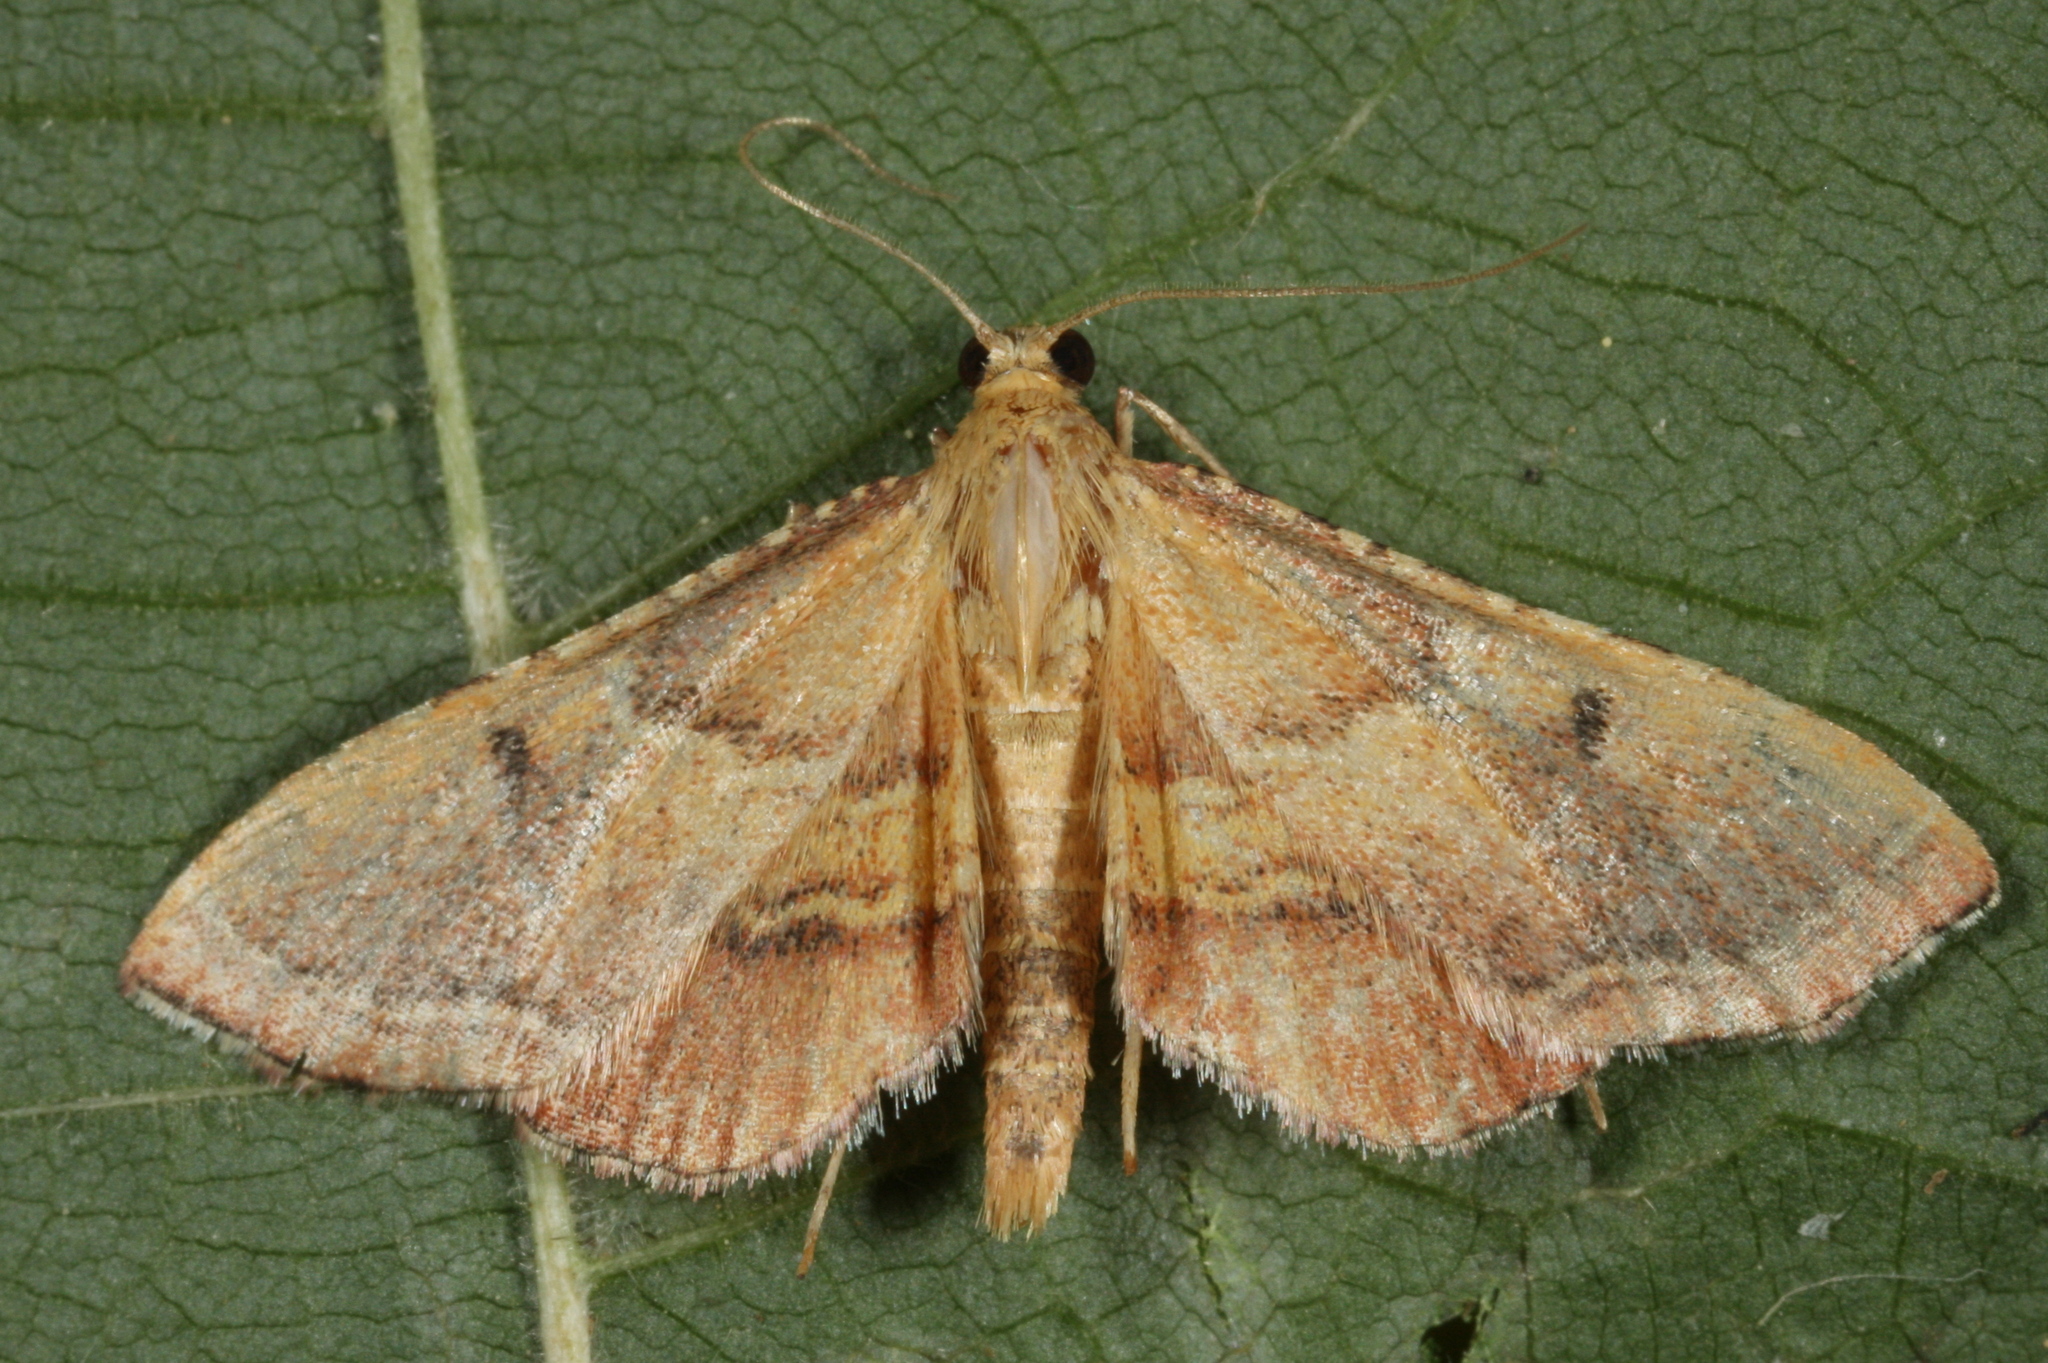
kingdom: Animalia
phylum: Arthropoda
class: Insecta
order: Lepidoptera
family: Pyralidae
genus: Endotricha
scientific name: Endotricha flammealis
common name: Rosy tabby
